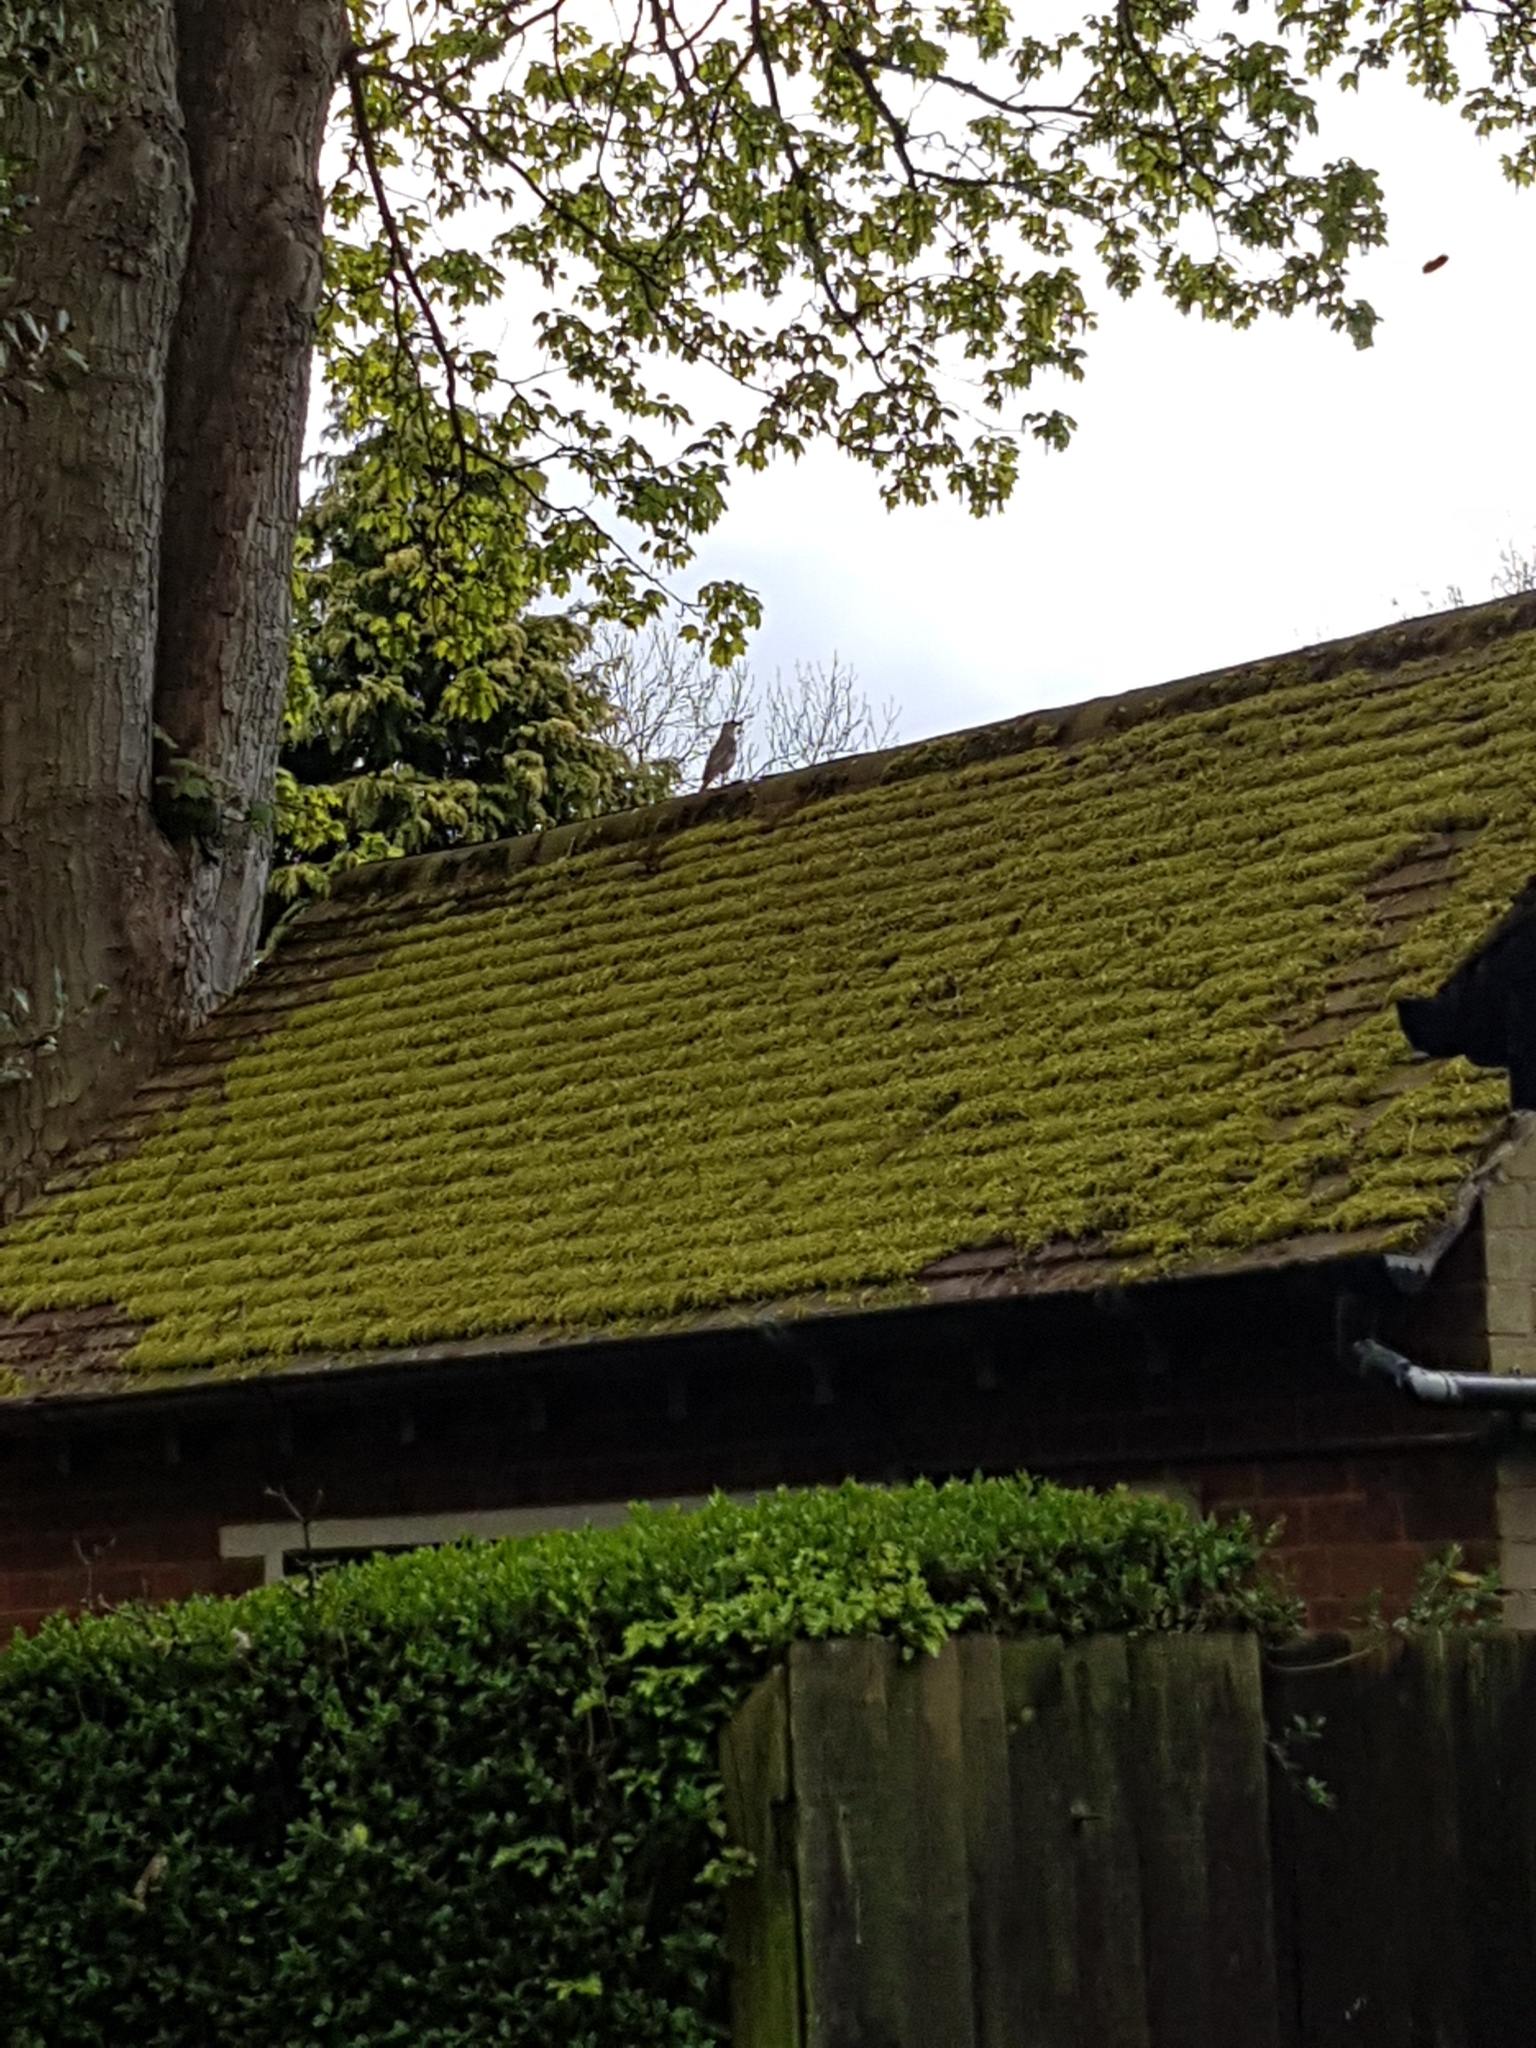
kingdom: Animalia
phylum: Chordata
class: Aves
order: Passeriformes
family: Turdidae
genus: Turdus
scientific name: Turdus viscivorus
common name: Mistle thrush
